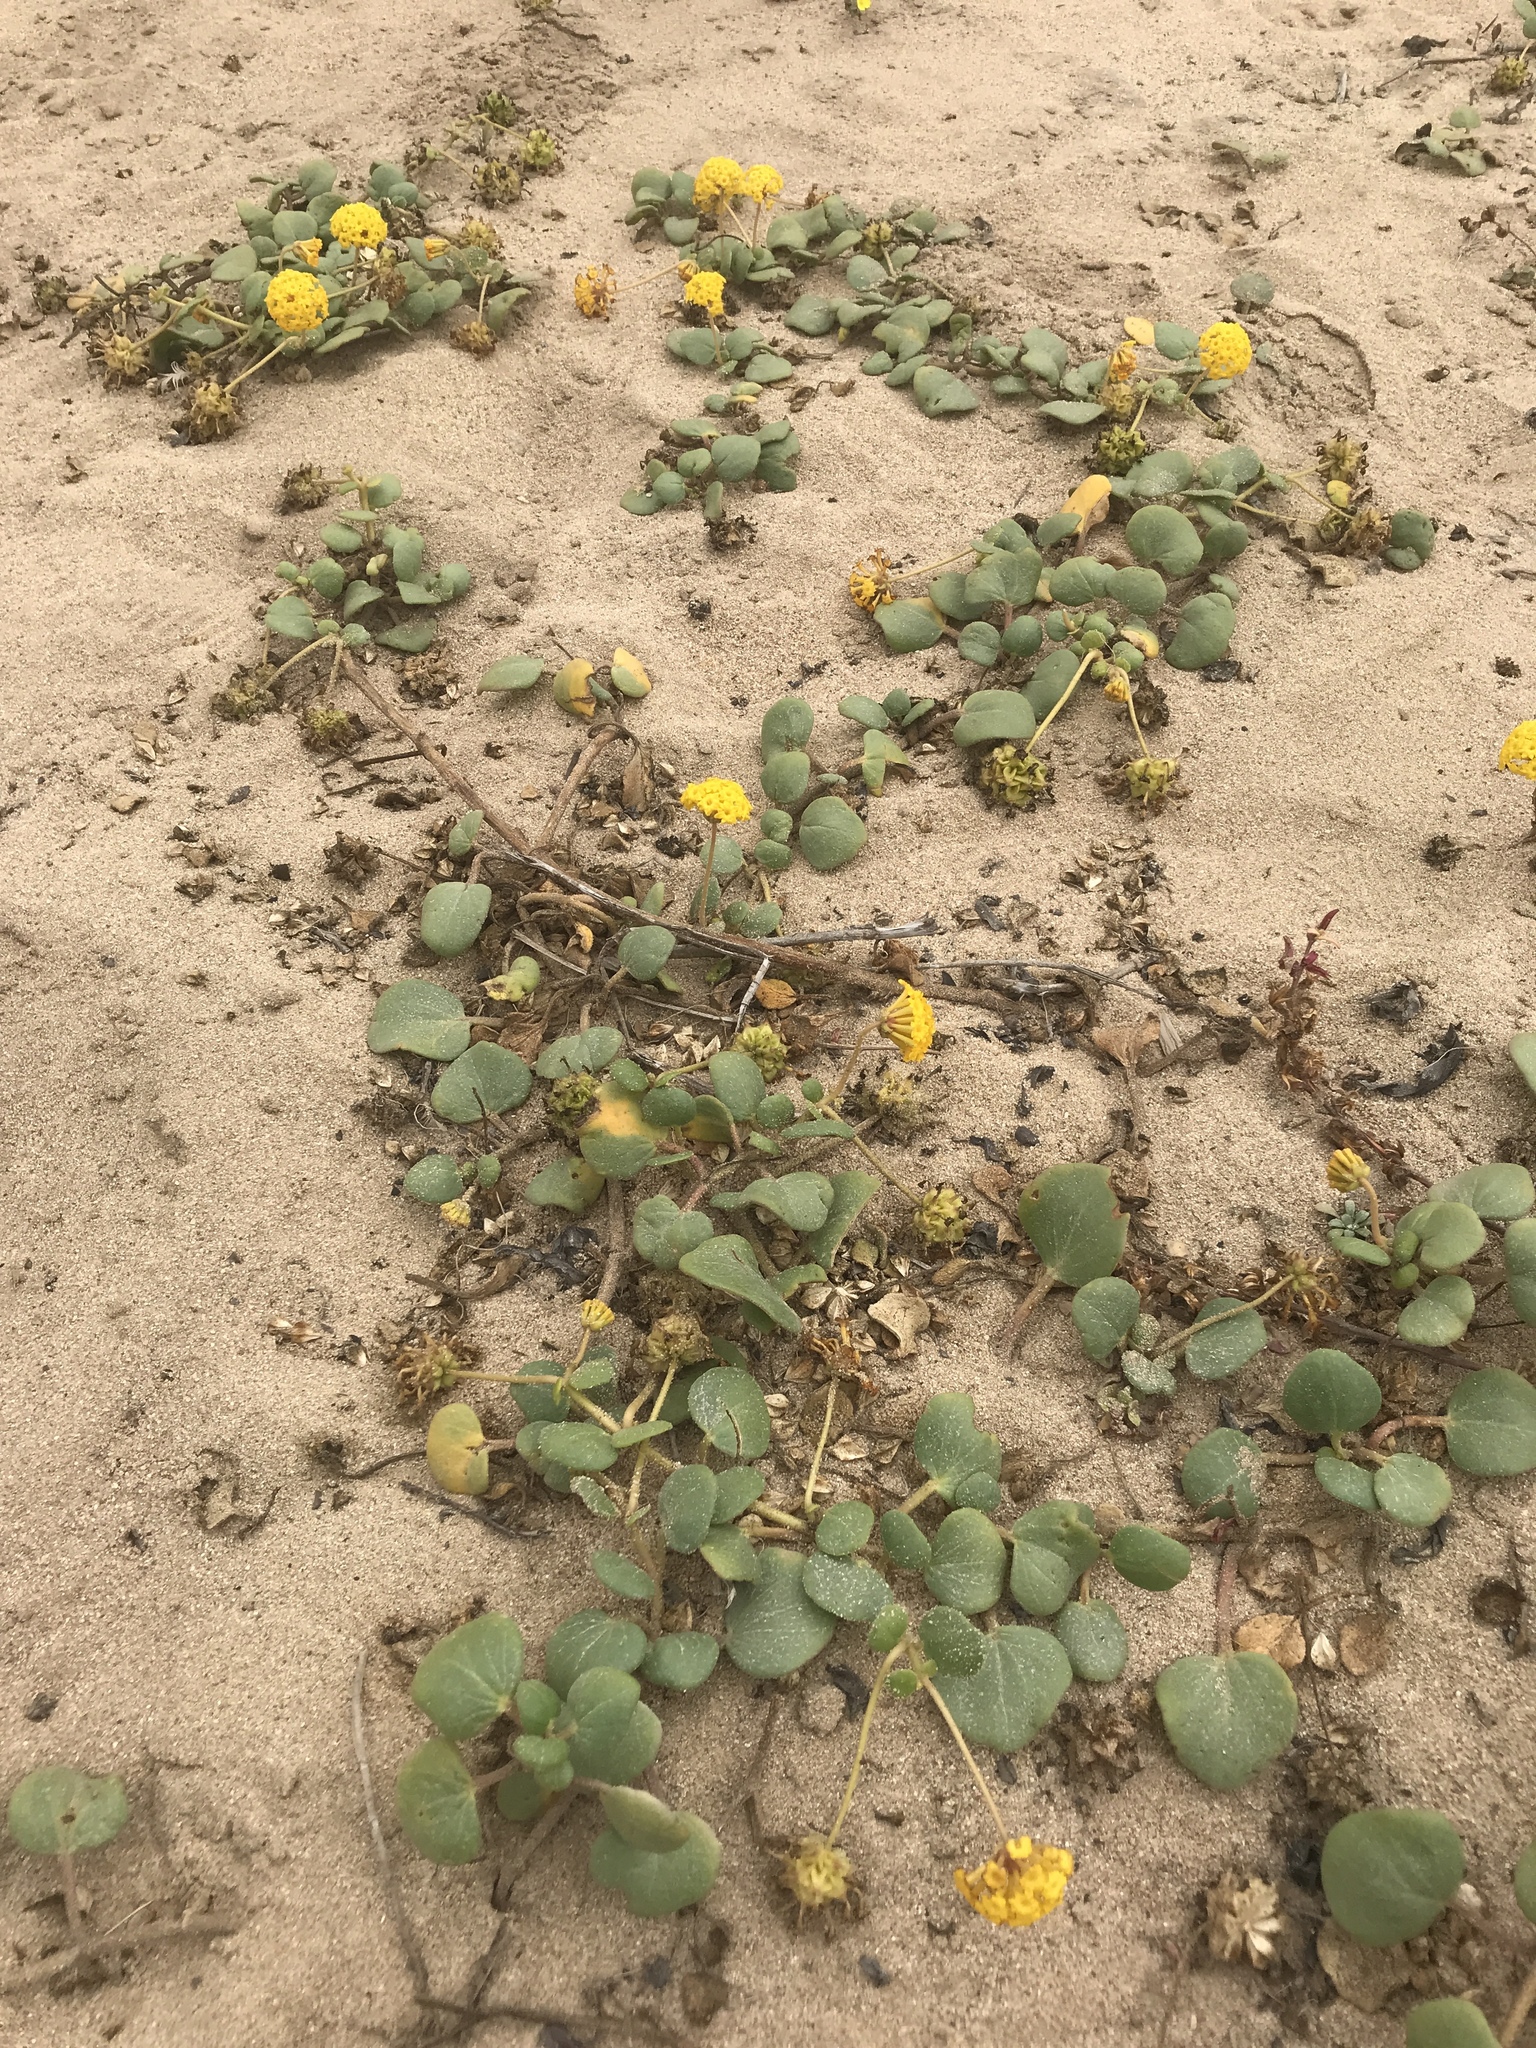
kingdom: Plantae
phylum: Tracheophyta
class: Magnoliopsida
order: Caryophyllales
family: Nyctaginaceae
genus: Abronia
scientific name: Abronia latifolia
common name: Yellow sand-verbena
